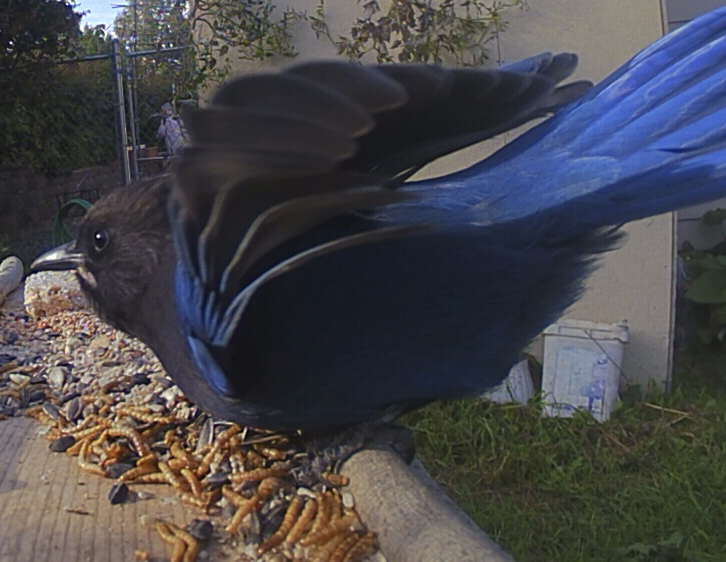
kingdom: Animalia
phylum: Chordata
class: Aves
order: Passeriformes
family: Corvidae
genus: Cyanocitta
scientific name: Cyanocitta stelleri
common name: Steller's jay
